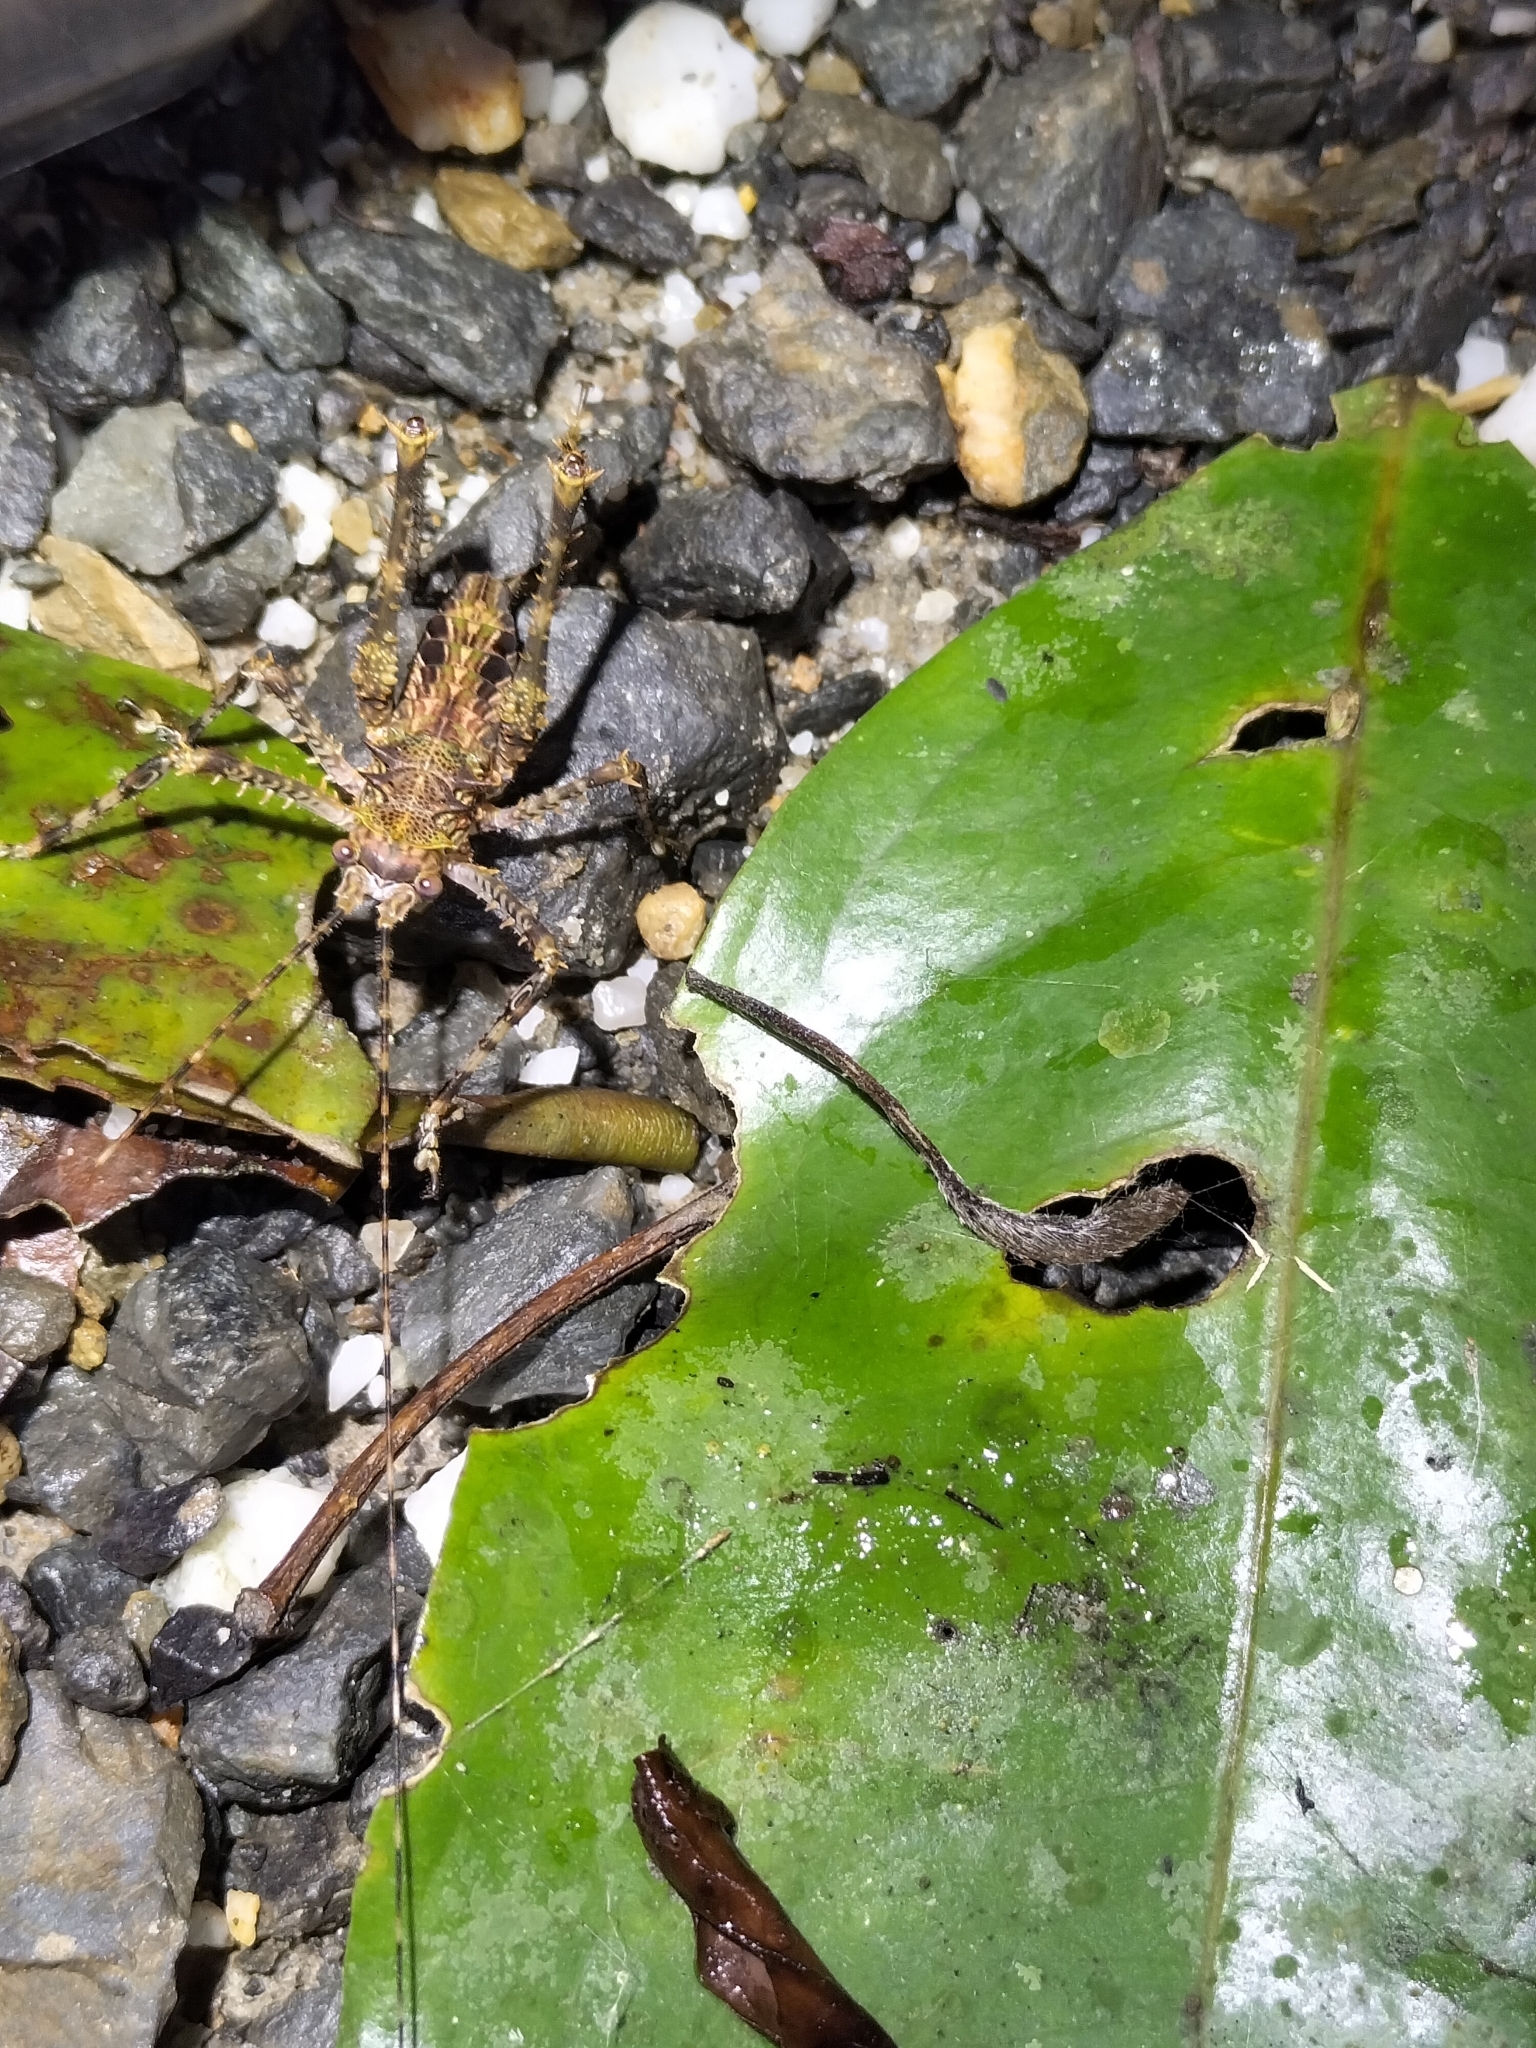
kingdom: Animalia
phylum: Arthropoda
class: Insecta
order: Orthoptera
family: Tettigoniidae
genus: Phricta
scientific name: Phricta spinosa
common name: Giant spiny forest katydid
